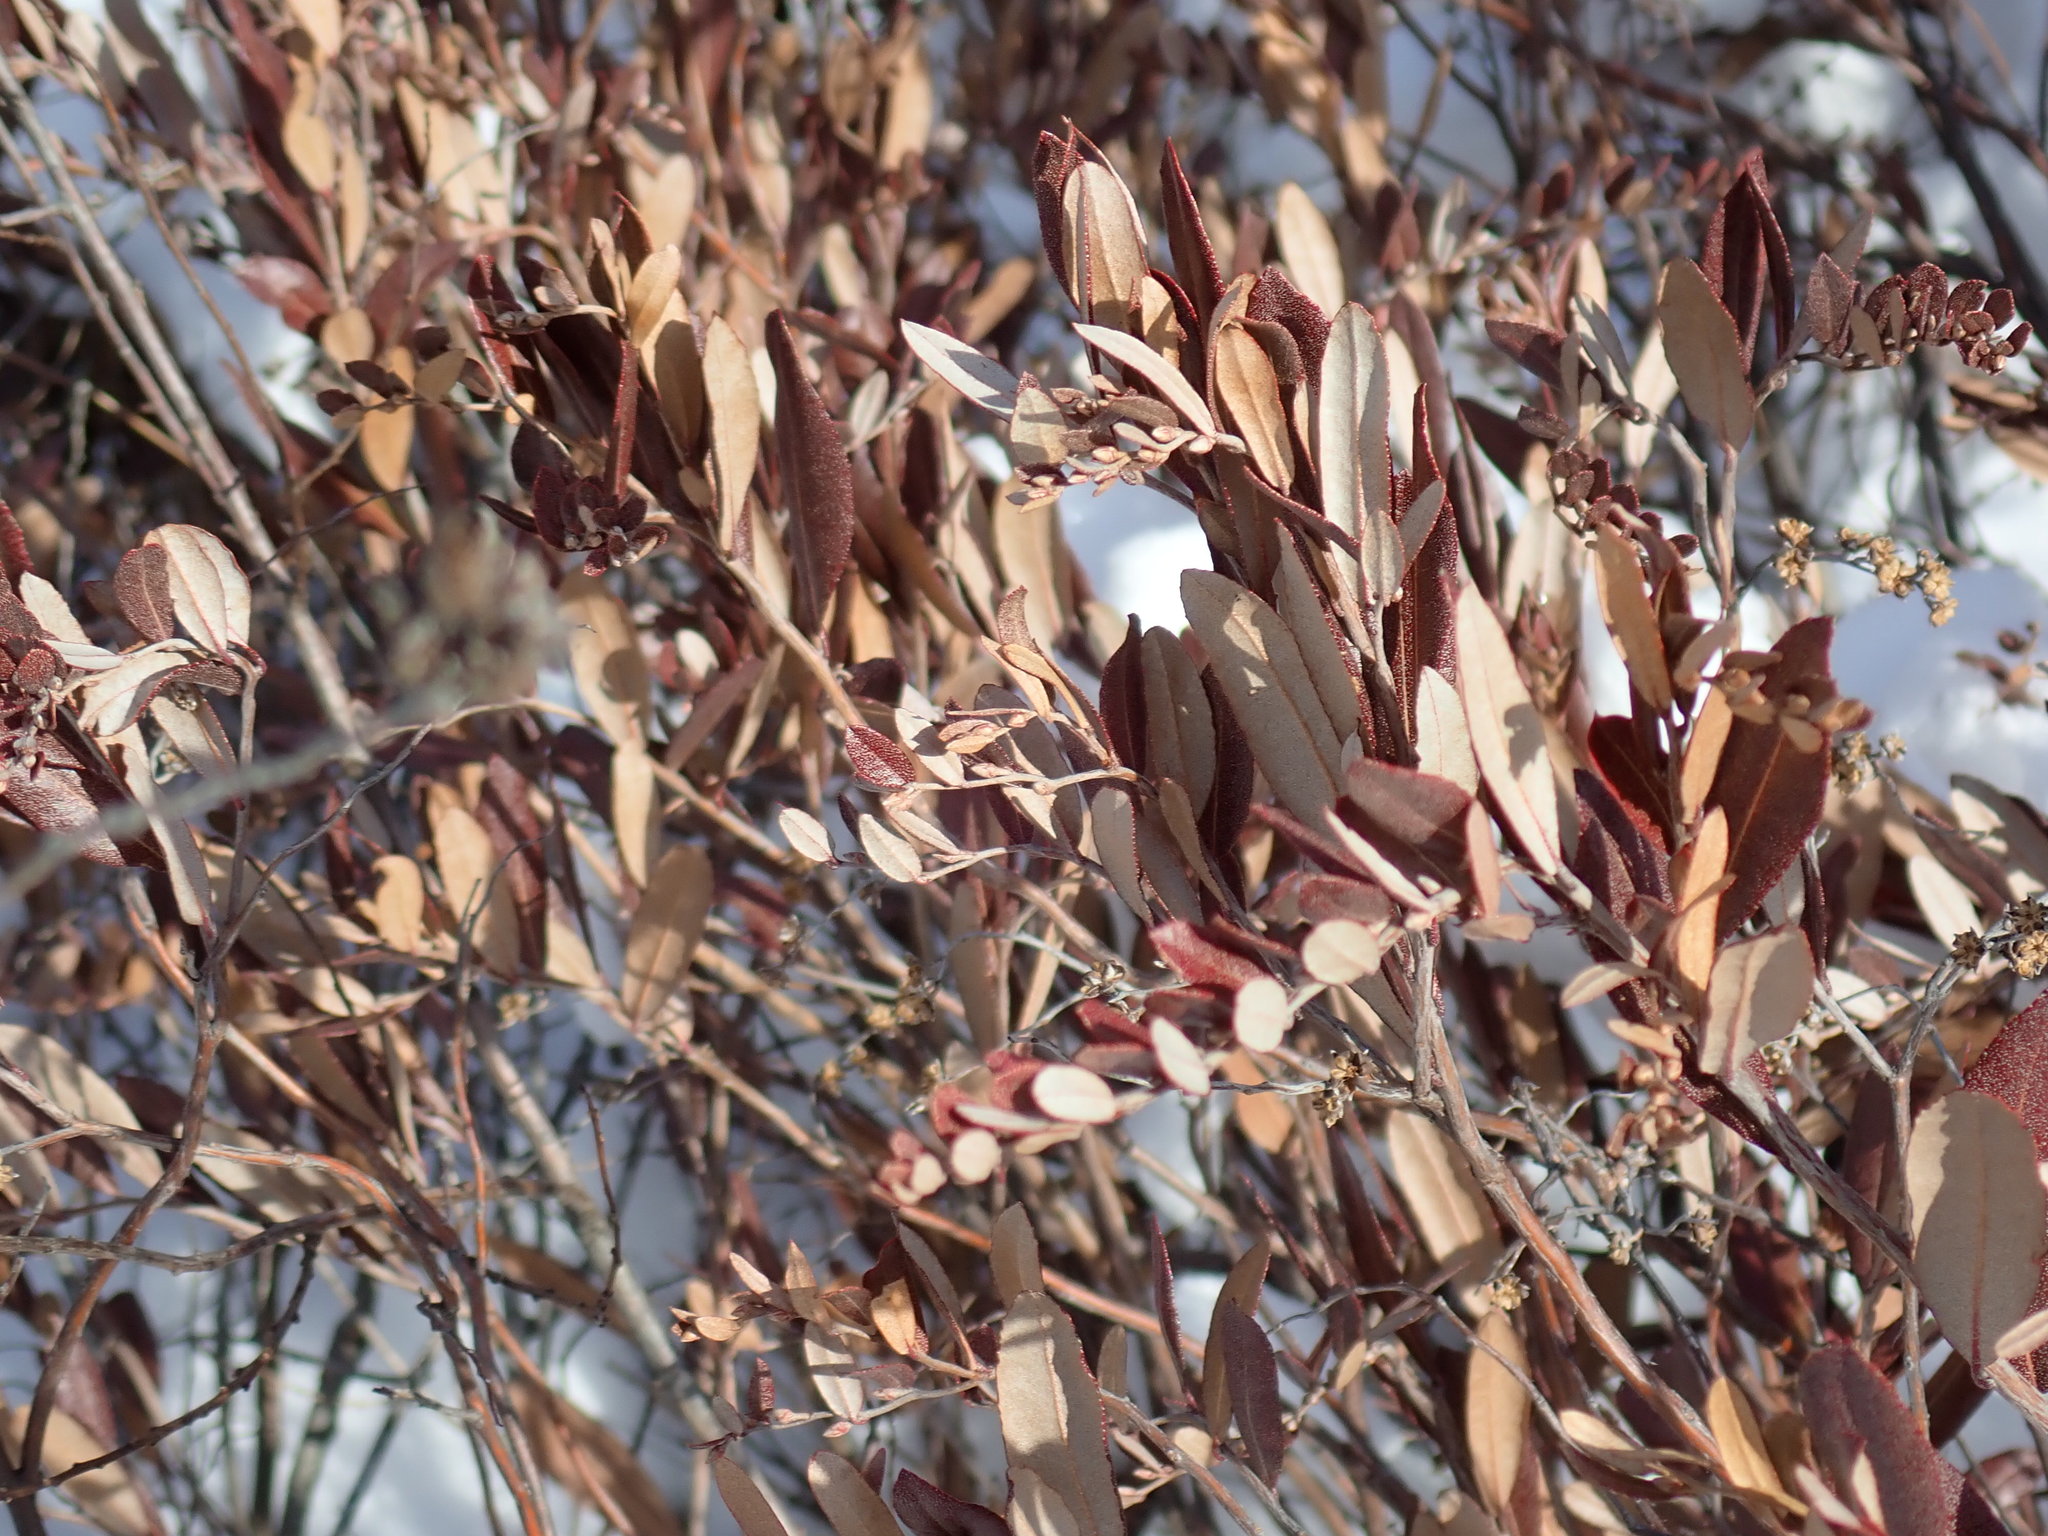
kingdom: Plantae
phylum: Tracheophyta
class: Magnoliopsida
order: Ericales
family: Ericaceae
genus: Chamaedaphne
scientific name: Chamaedaphne calyculata
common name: Leatherleaf
